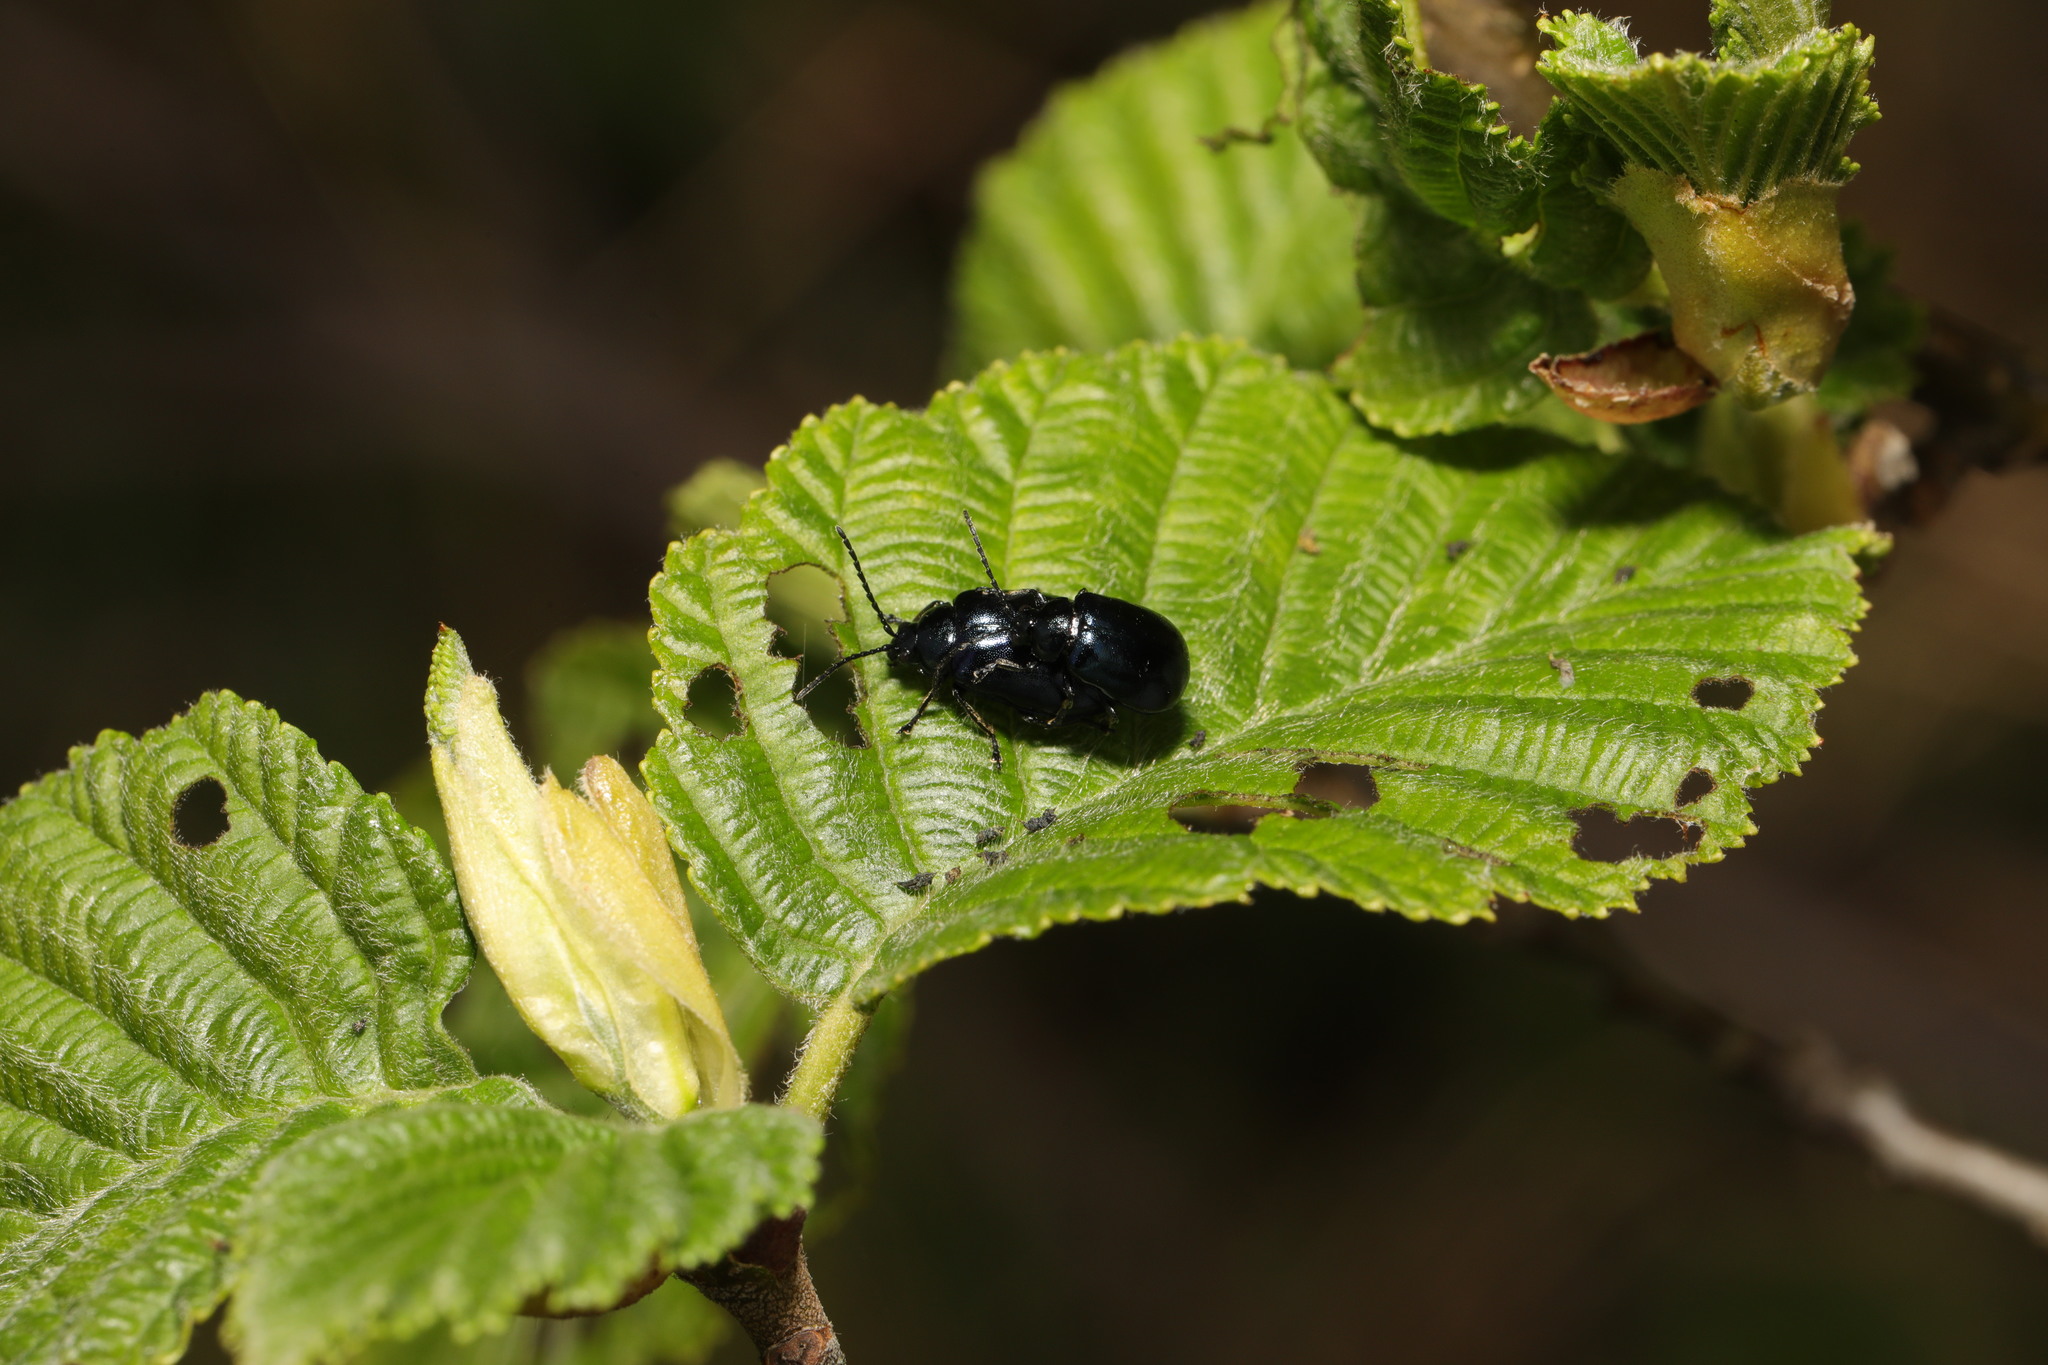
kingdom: Animalia
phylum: Arthropoda
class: Insecta
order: Coleoptera
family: Chrysomelidae
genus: Agelastica
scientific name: Agelastica alni
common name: Alder leaf beetle
